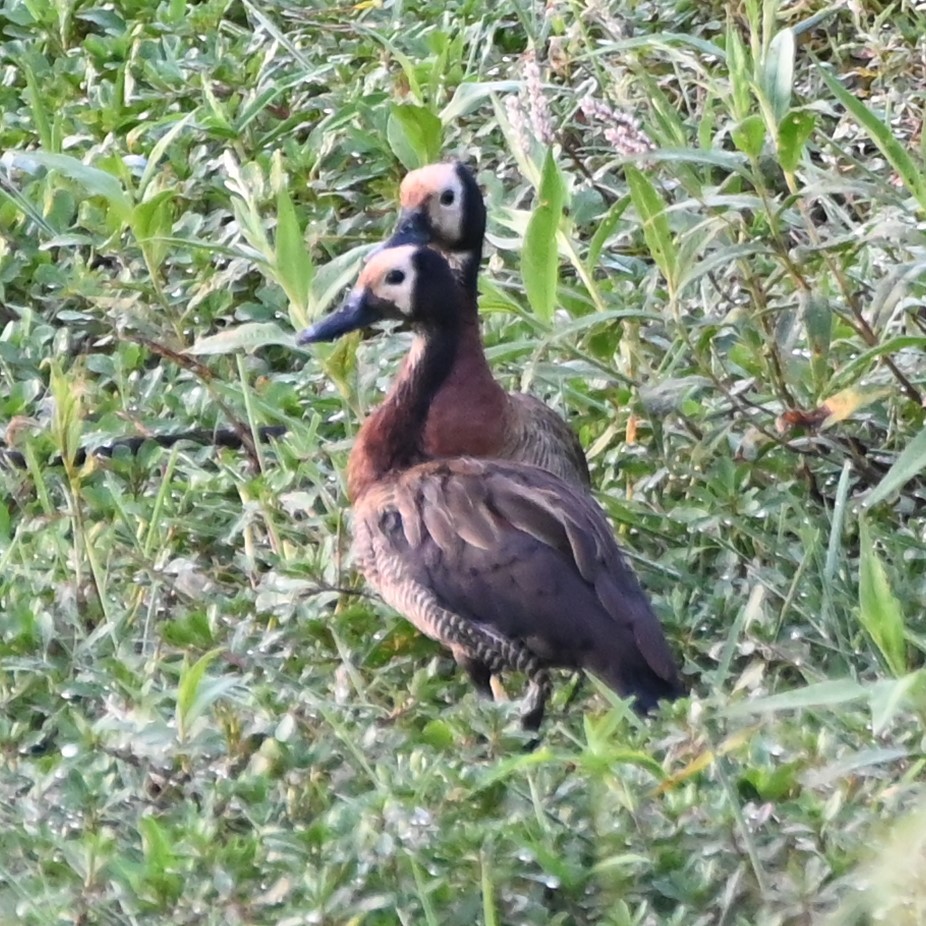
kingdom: Animalia
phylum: Chordata
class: Aves
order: Anseriformes
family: Anatidae
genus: Dendrocygna
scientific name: Dendrocygna viduata
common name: White-faced whistling duck
